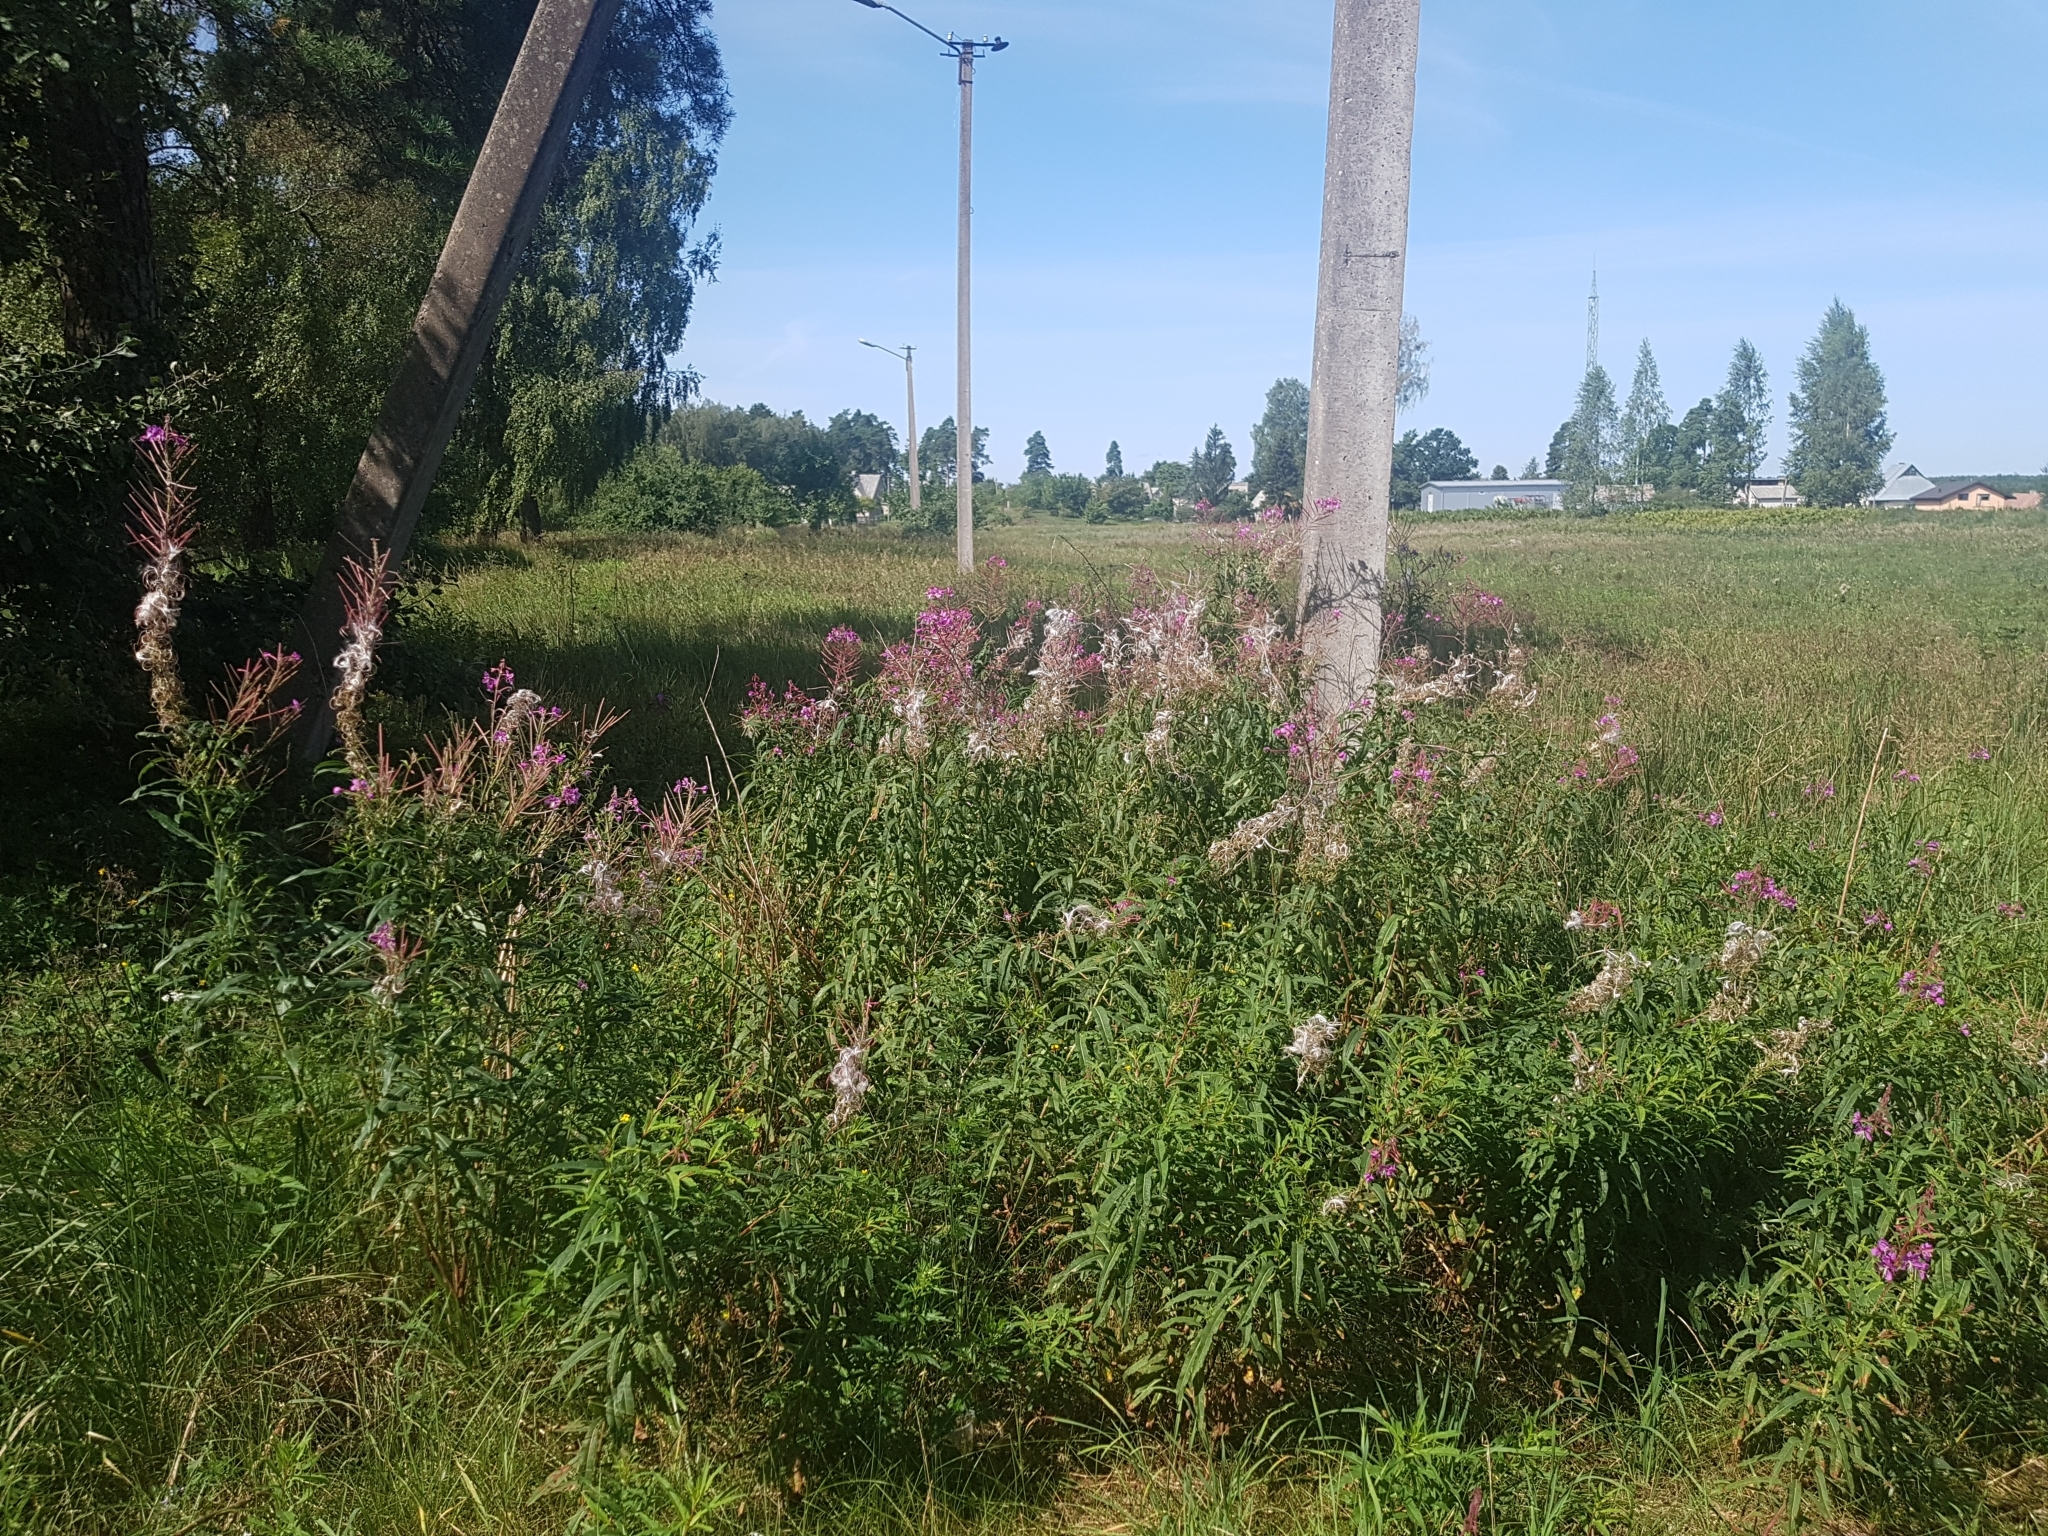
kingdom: Plantae
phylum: Tracheophyta
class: Magnoliopsida
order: Myrtales
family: Onagraceae
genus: Chamaenerion
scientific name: Chamaenerion angustifolium
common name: Fireweed
